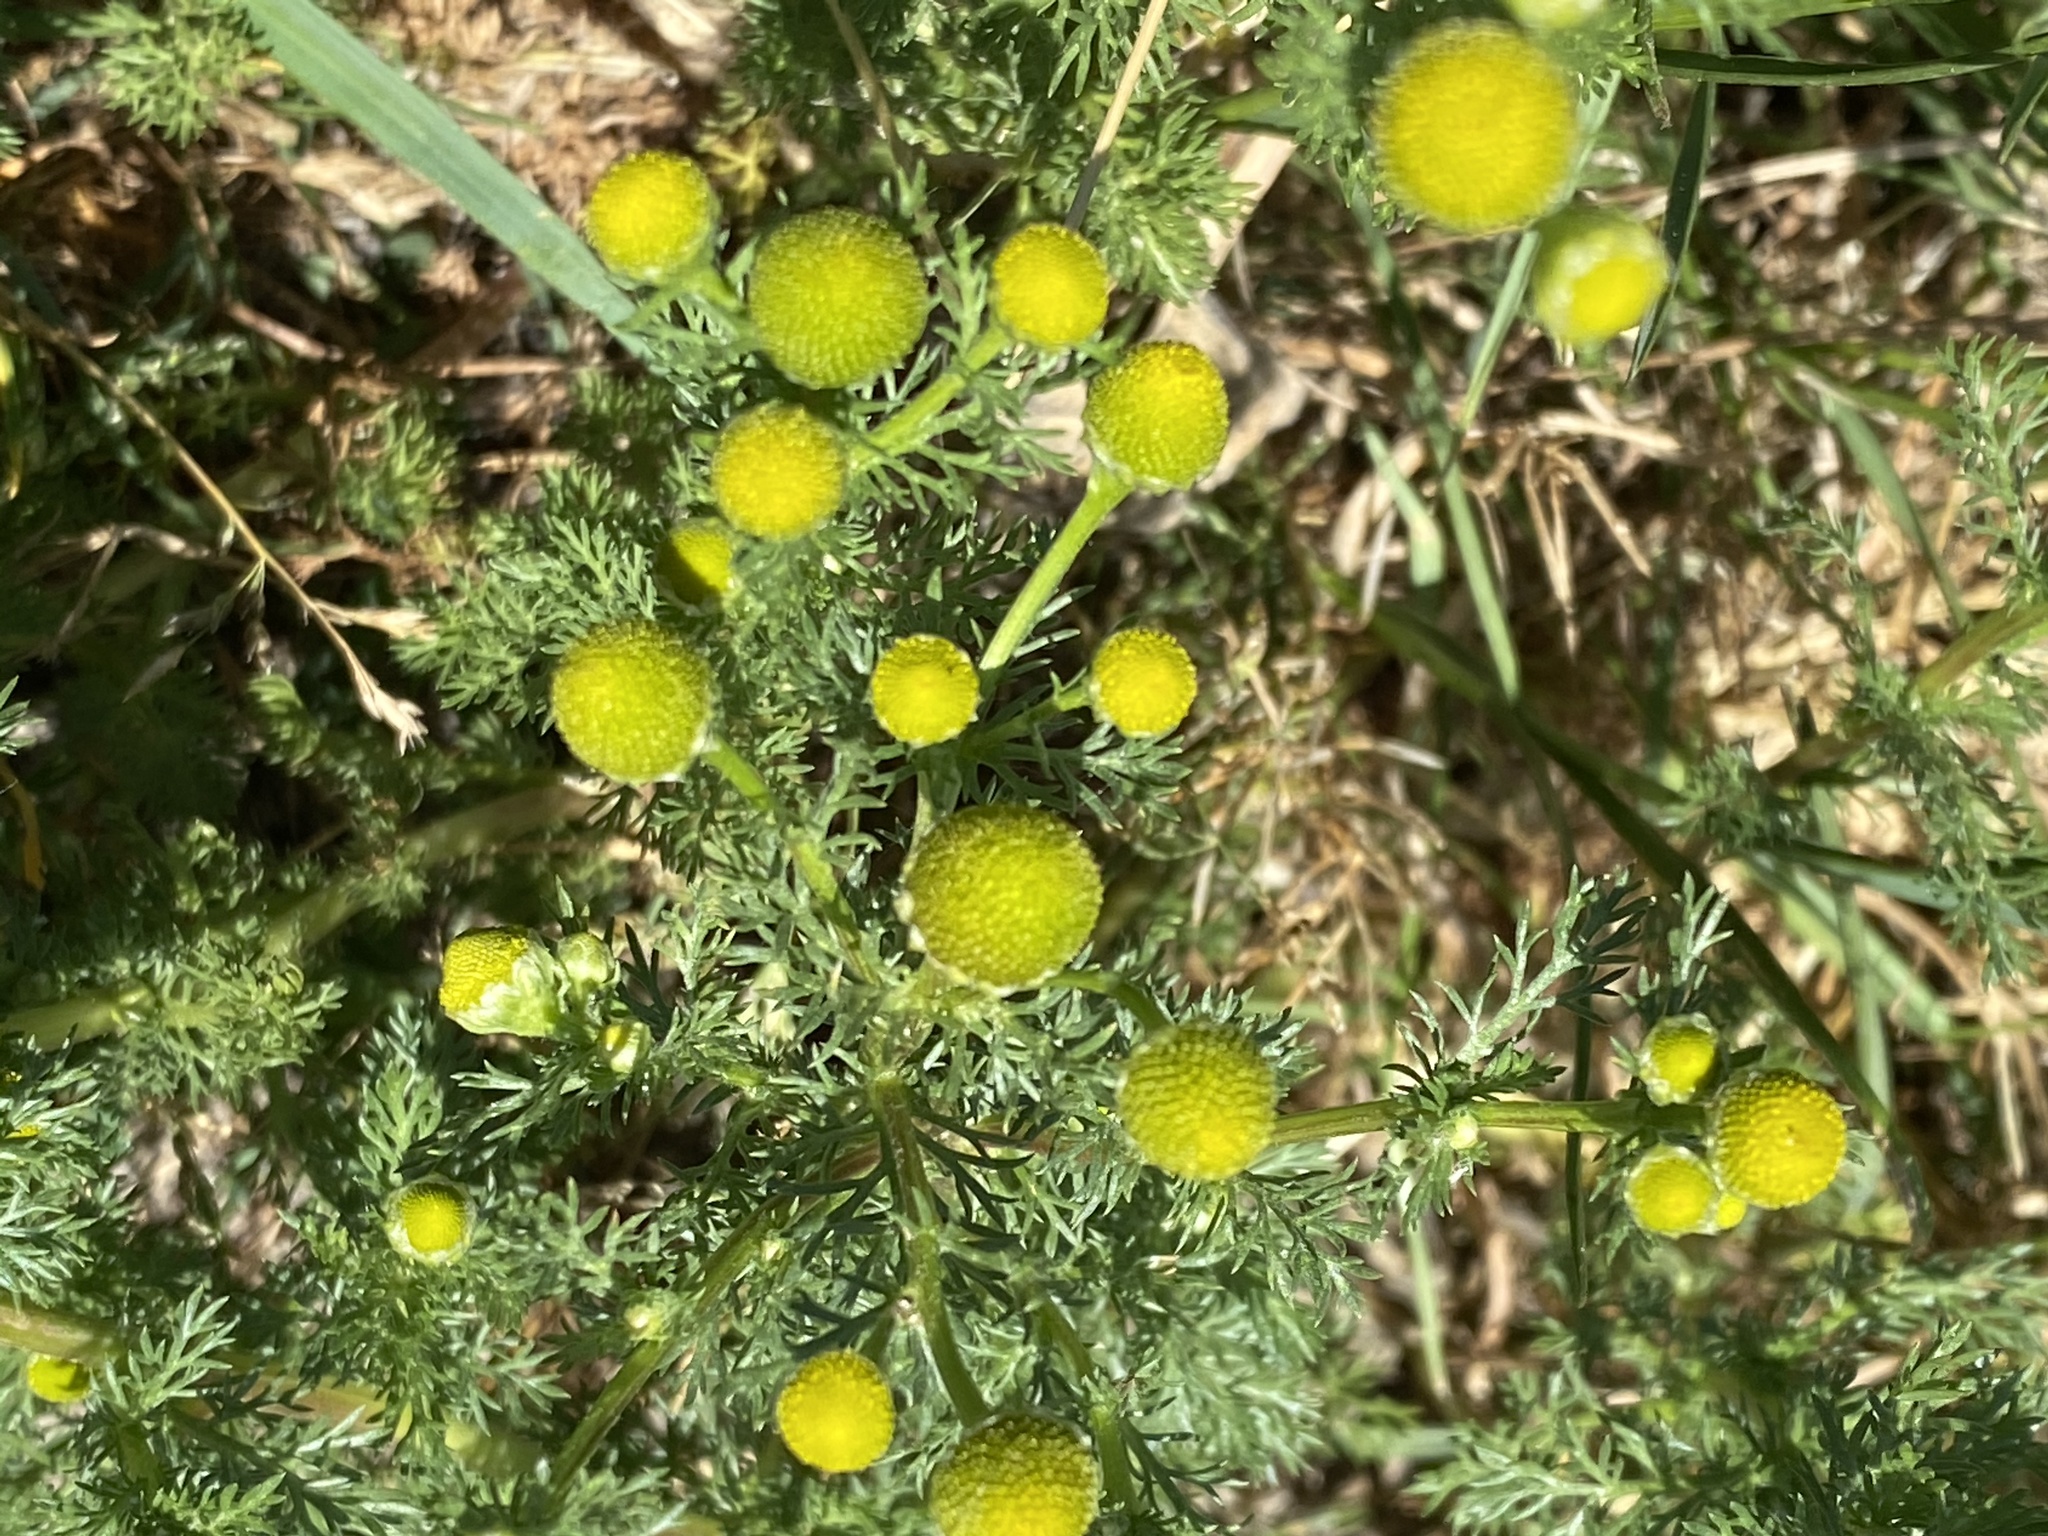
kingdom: Plantae
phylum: Tracheophyta
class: Magnoliopsida
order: Asterales
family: Asteraceae
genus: Matricaria
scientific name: Matricaria discoidea
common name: Disc mayweed
